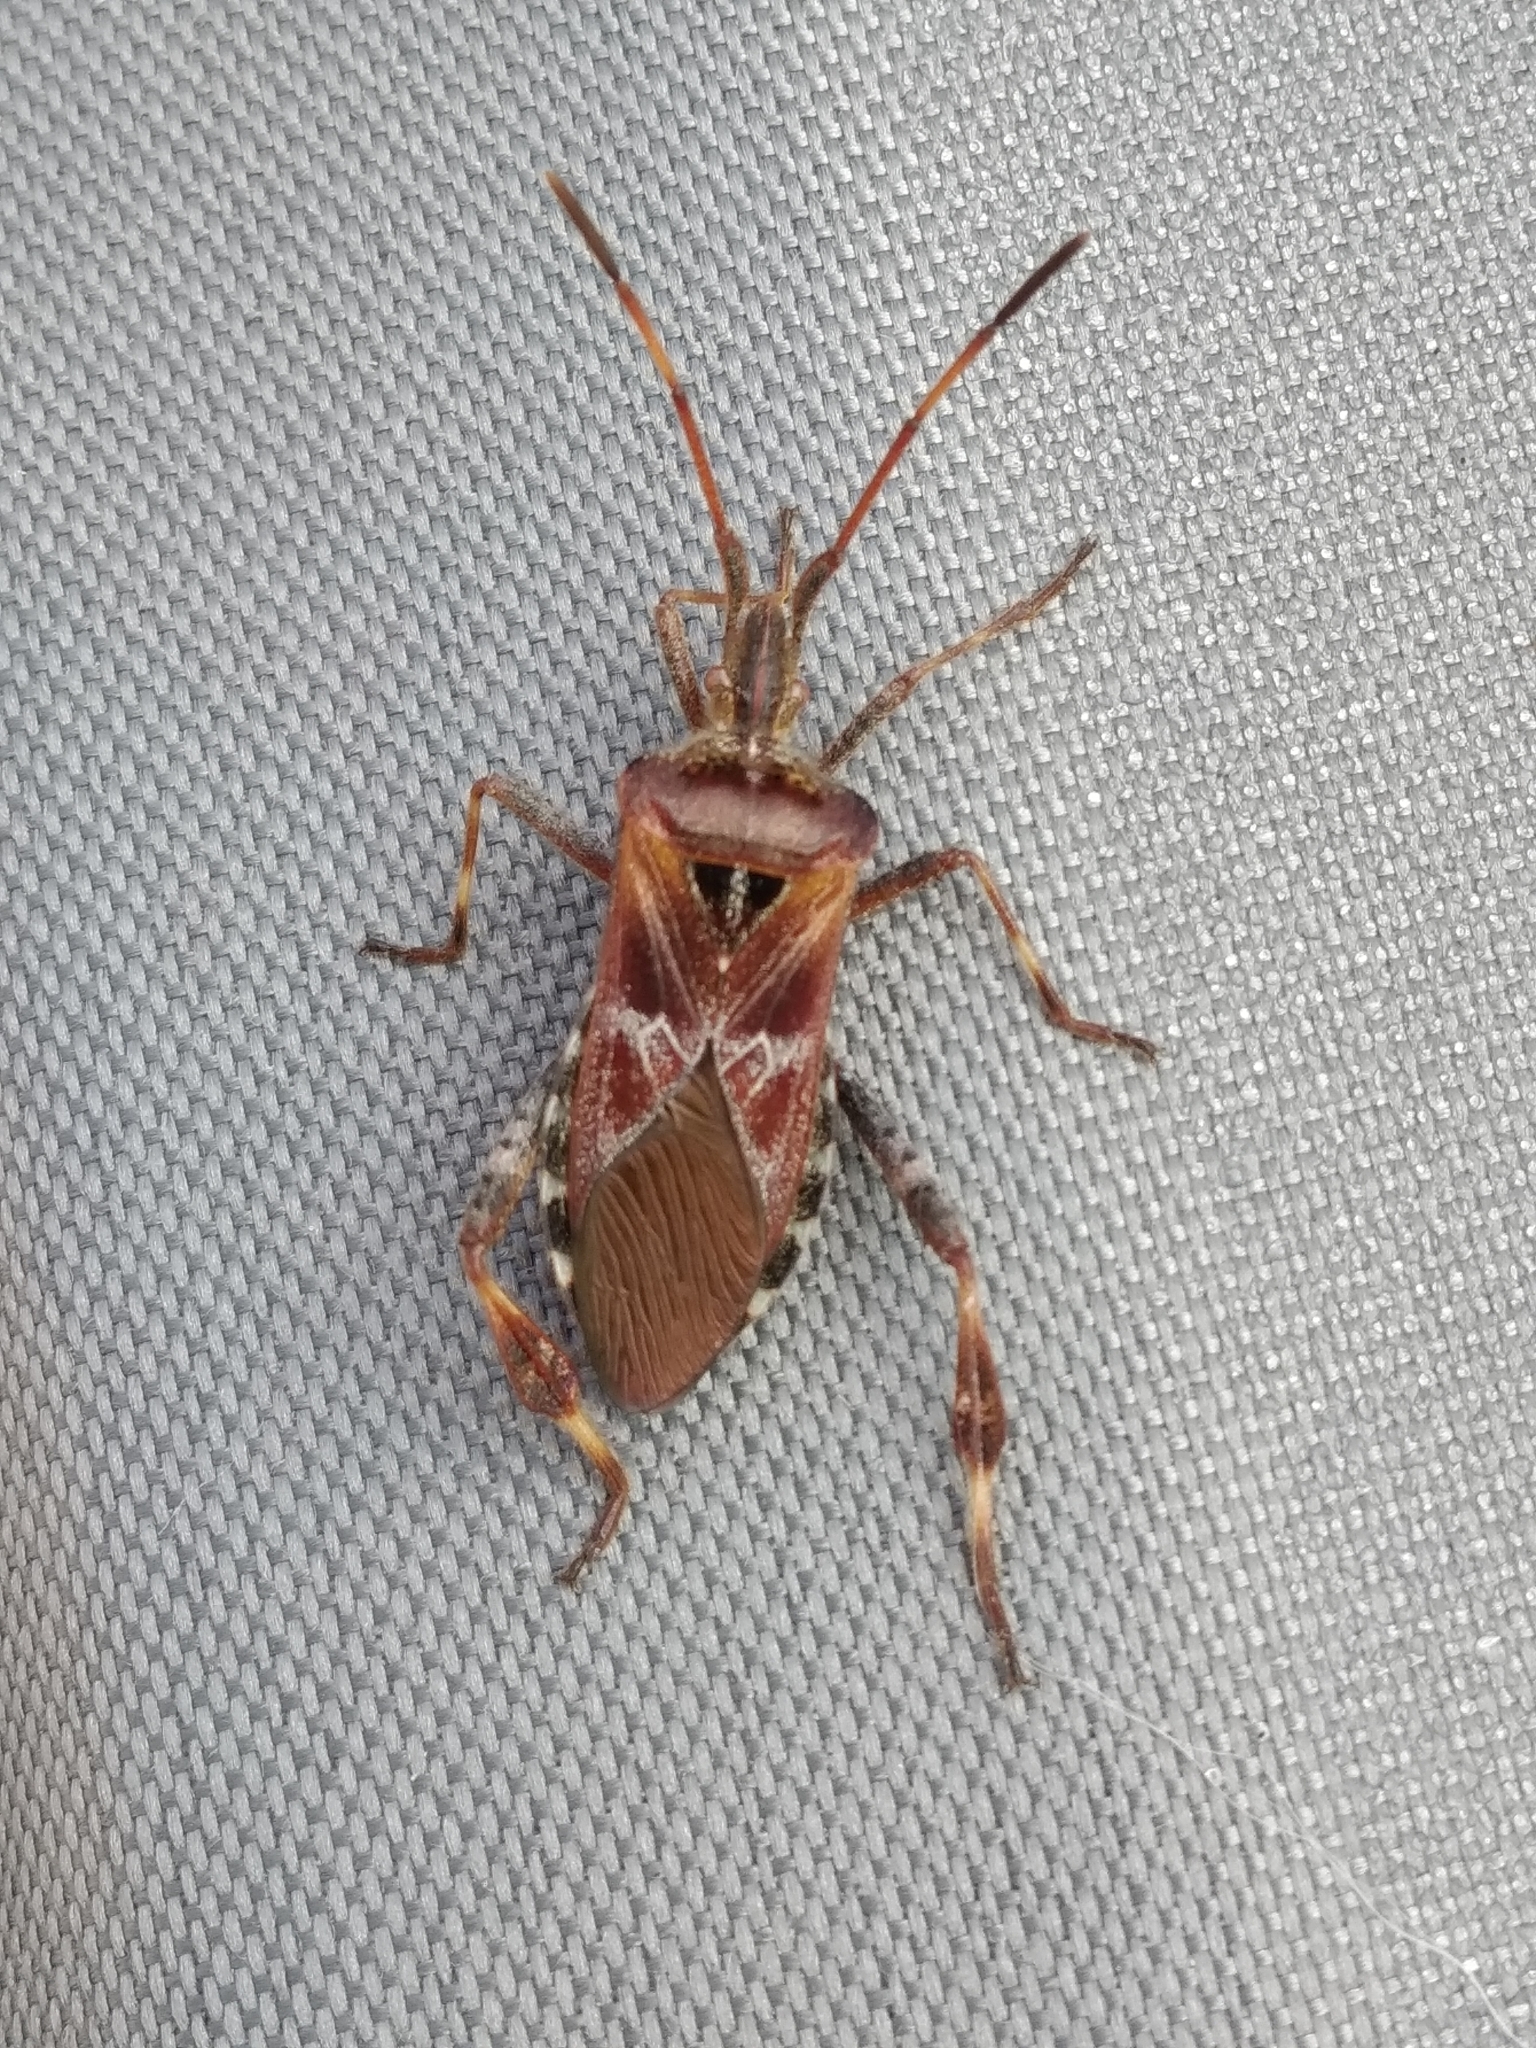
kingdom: Animalia
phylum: Arthropoda
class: Insecta
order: Hemiptera
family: Coreidae
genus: Leptoglossus
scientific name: Leptoglossus occidentalis
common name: Western conifer-seed bug
